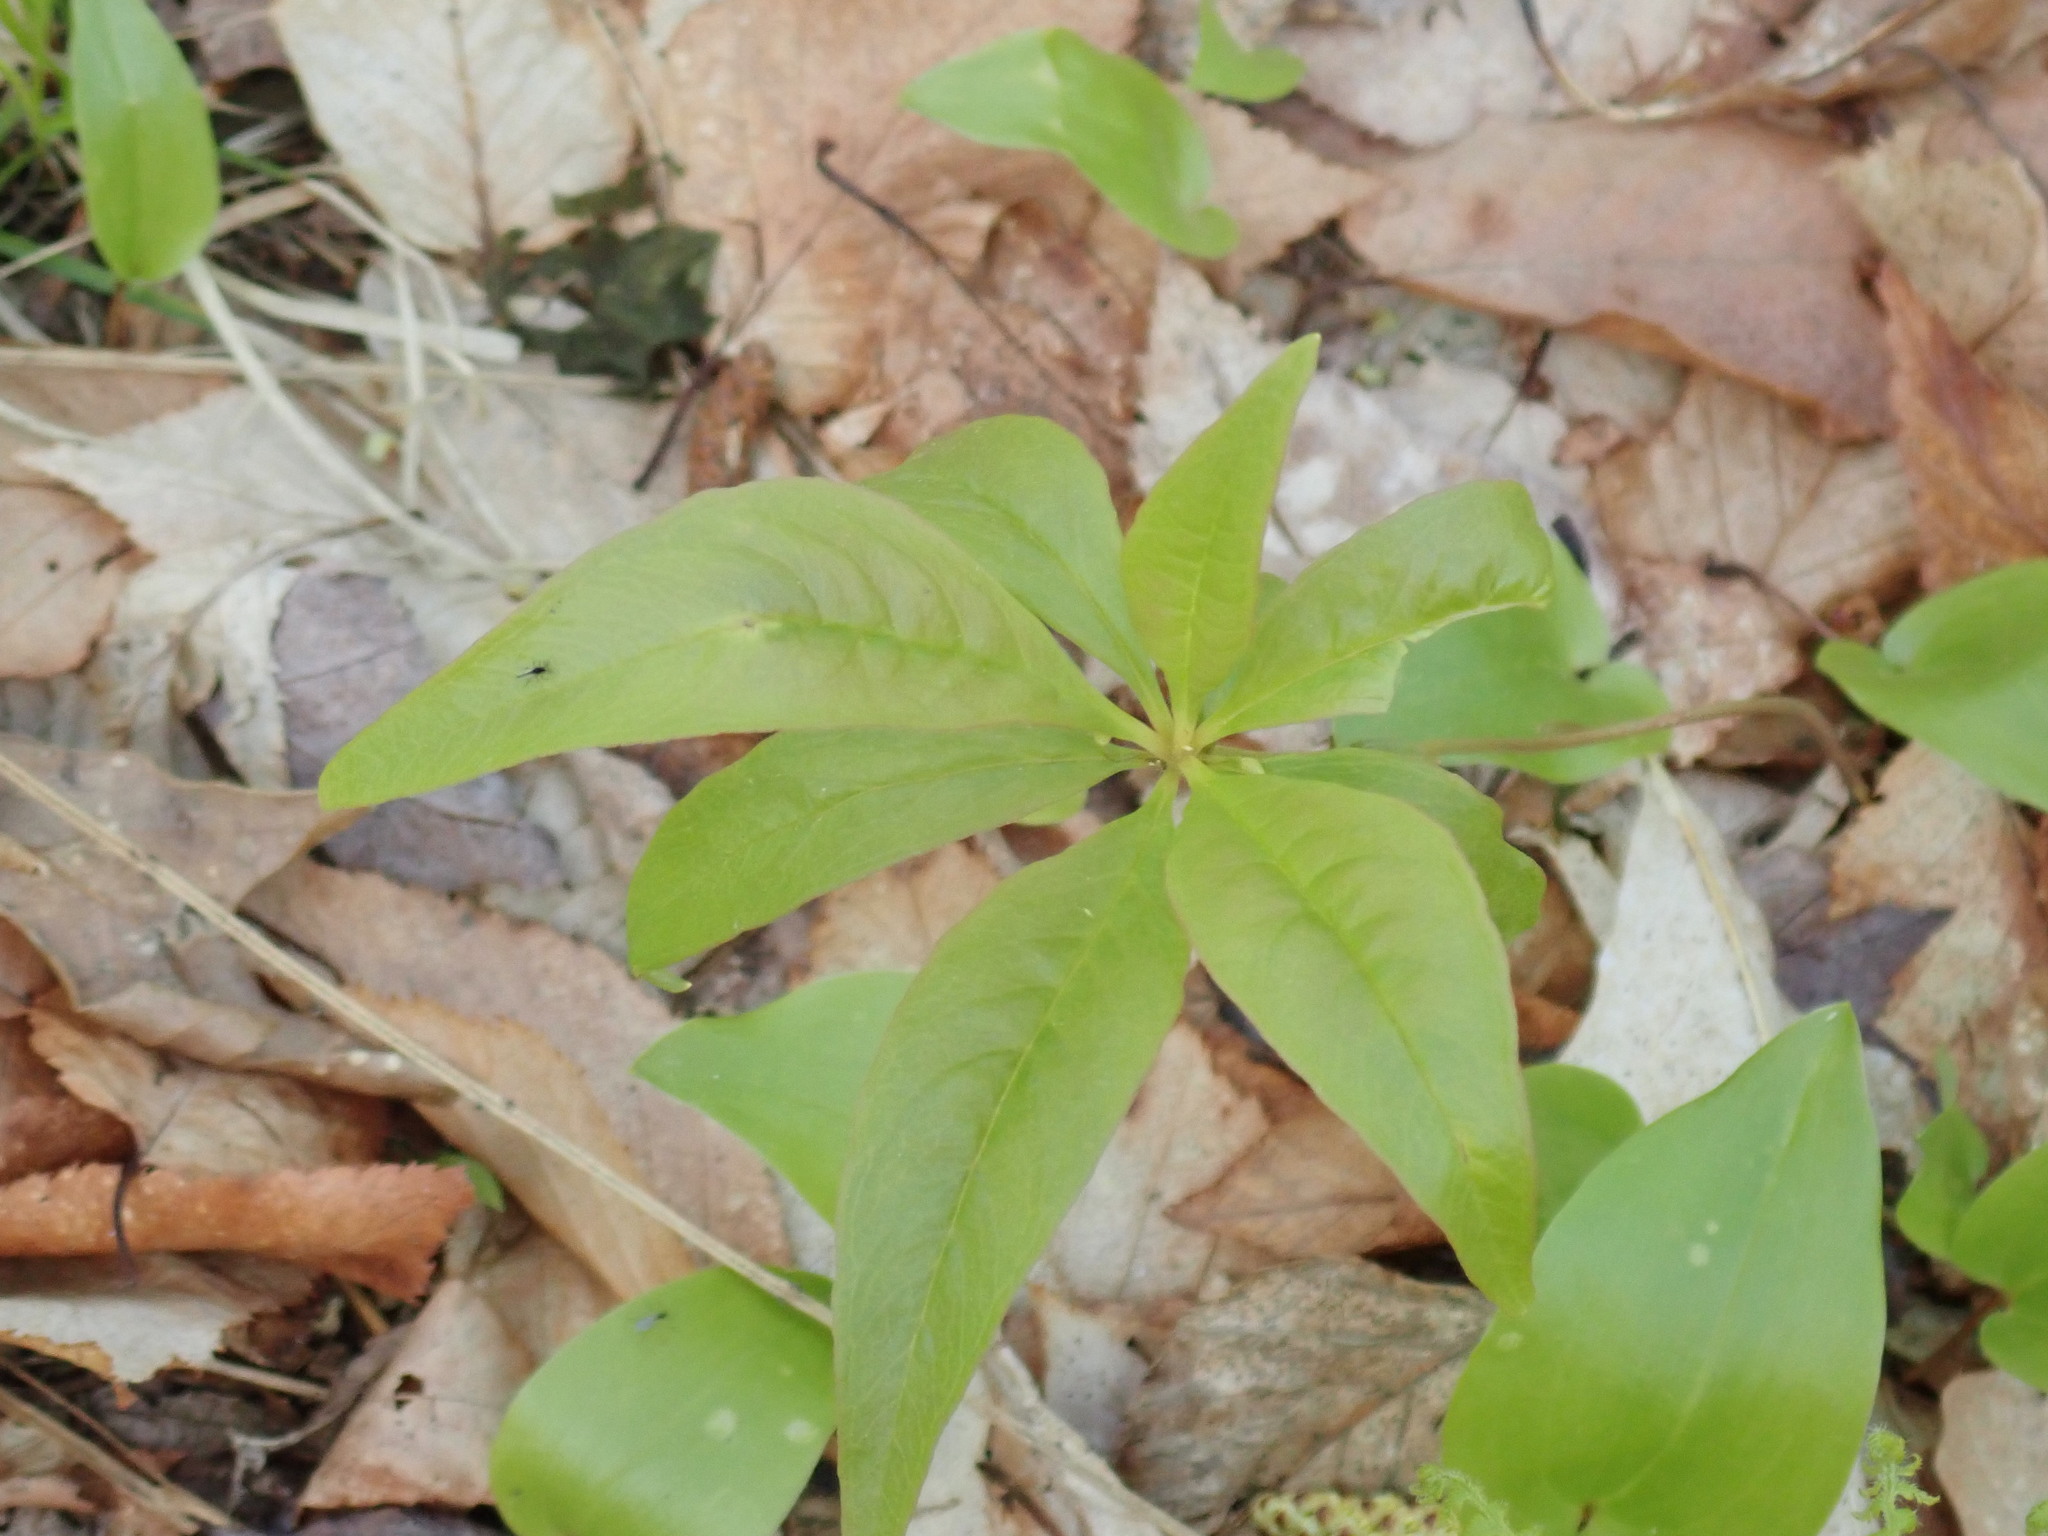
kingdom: Plantae
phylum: Tracheophyta
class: Magnoliopsida
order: Ericales
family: Primulaceae
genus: Lysimachia
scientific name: Lysimachia borealis
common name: American starflower
